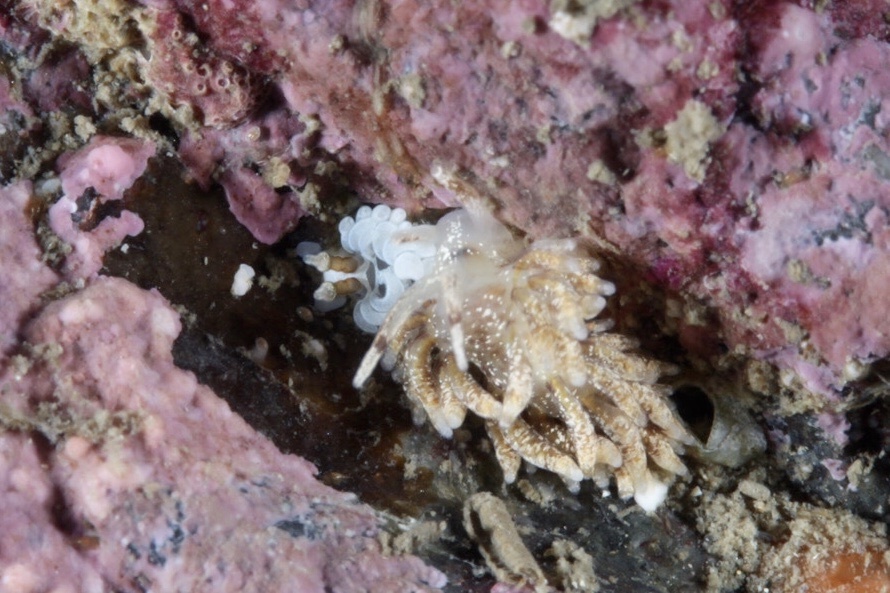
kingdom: Animalia
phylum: Mollusca
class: Gastropoda
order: Nudibranchia
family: Facelinidae
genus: Favorinus
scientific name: Favorinus branchialis
